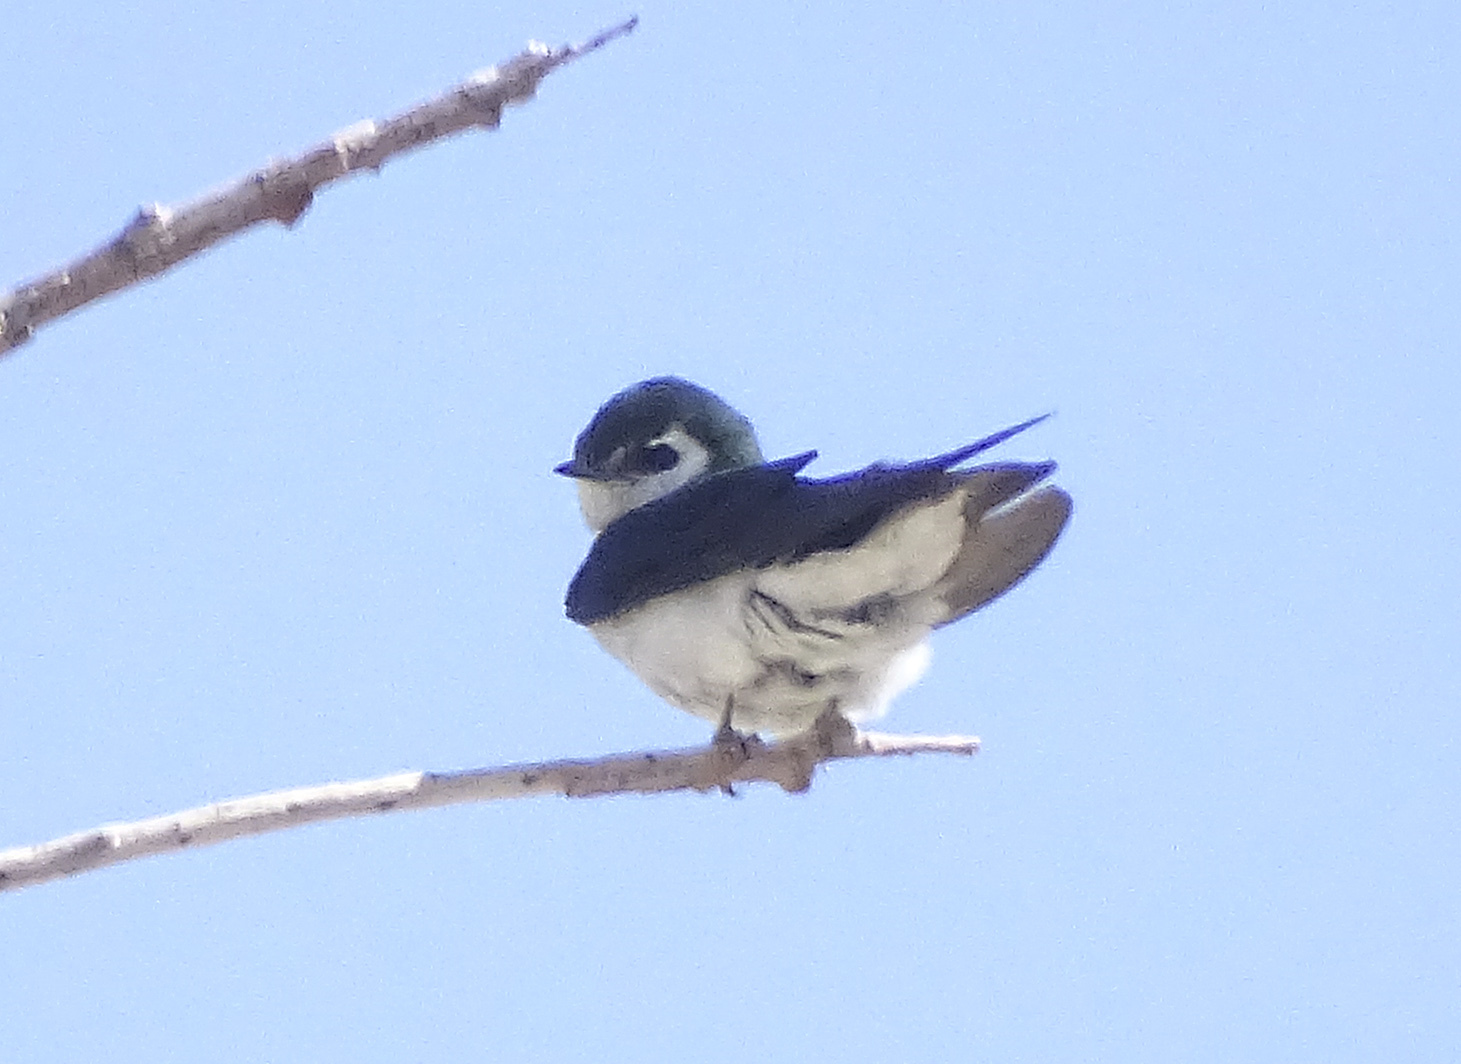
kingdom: Animalia
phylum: Chordata
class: Aves
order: Passeriformes
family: Hirundinidae
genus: Tachycineta
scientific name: Tachycineta thalassina
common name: Violet-green swallow
